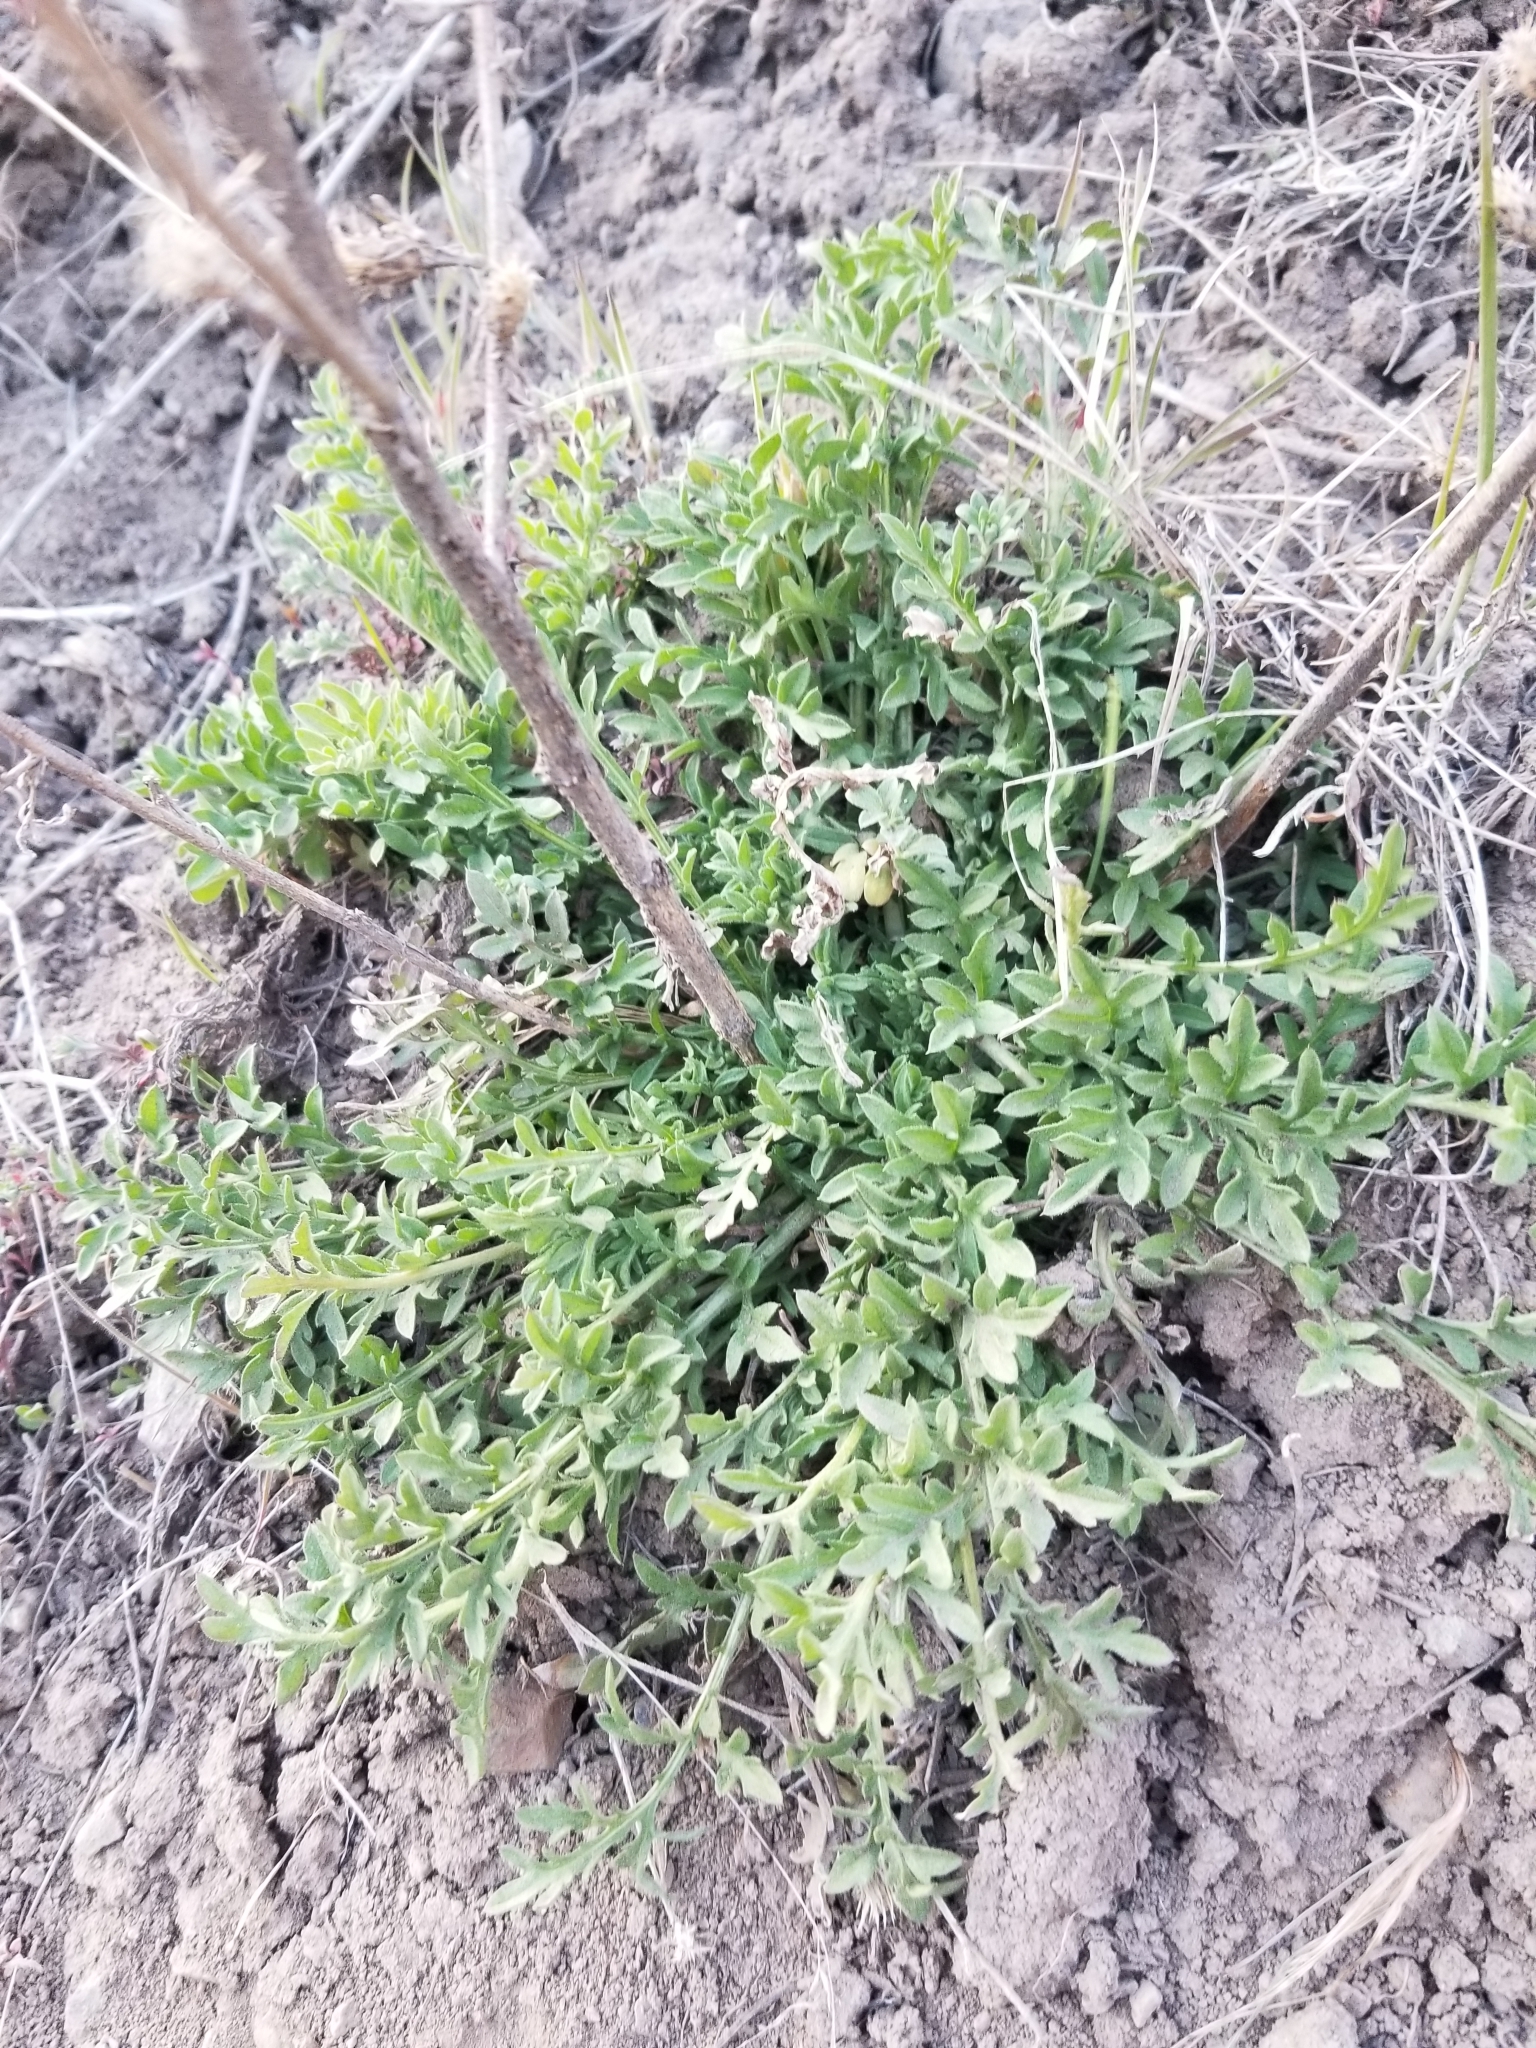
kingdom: Plantae
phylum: Tracheophyta
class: Magnoliopsida
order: Asterales
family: Asteraceae
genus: Centaurea
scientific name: Centaurea diffusa
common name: Diffuse knapweed
